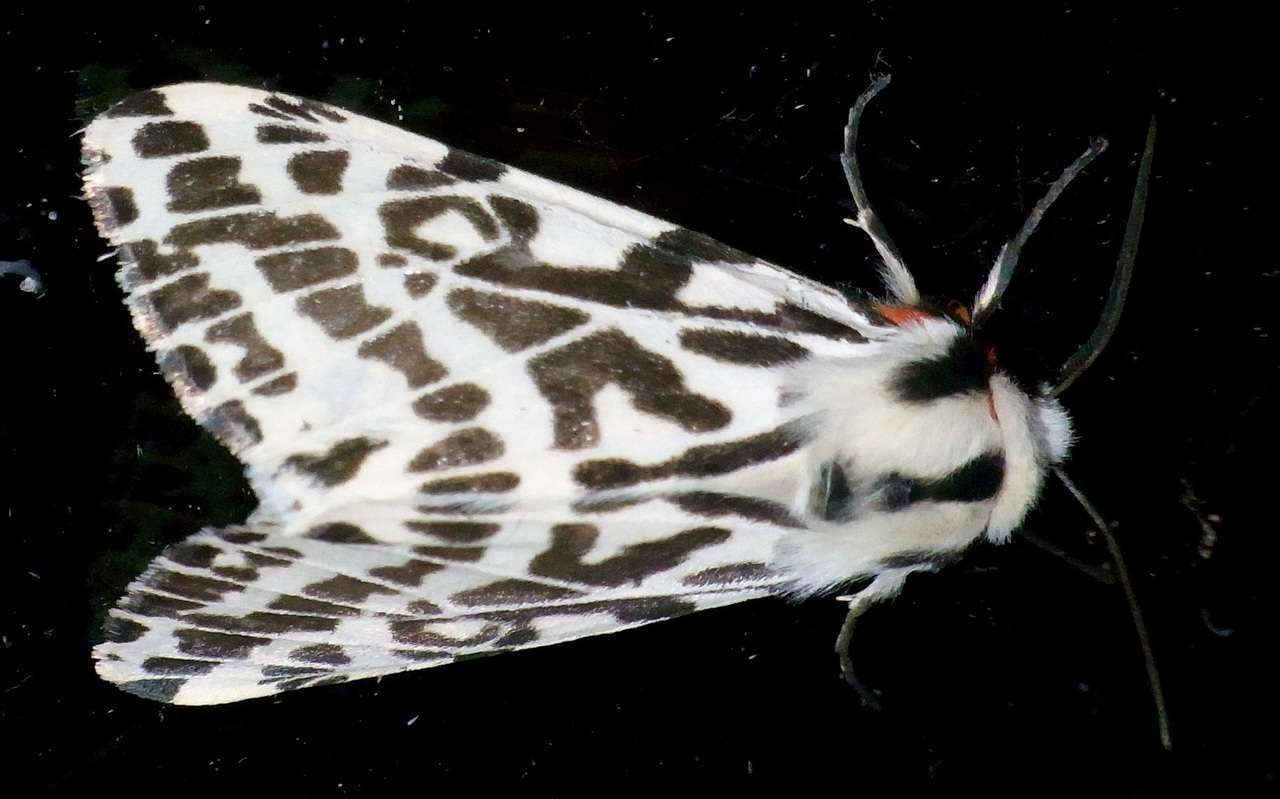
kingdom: Animalia
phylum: Arthropoda
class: Insecta
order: Lepidoptera
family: Erebidae
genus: Ardices
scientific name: Ardices glatignyi
